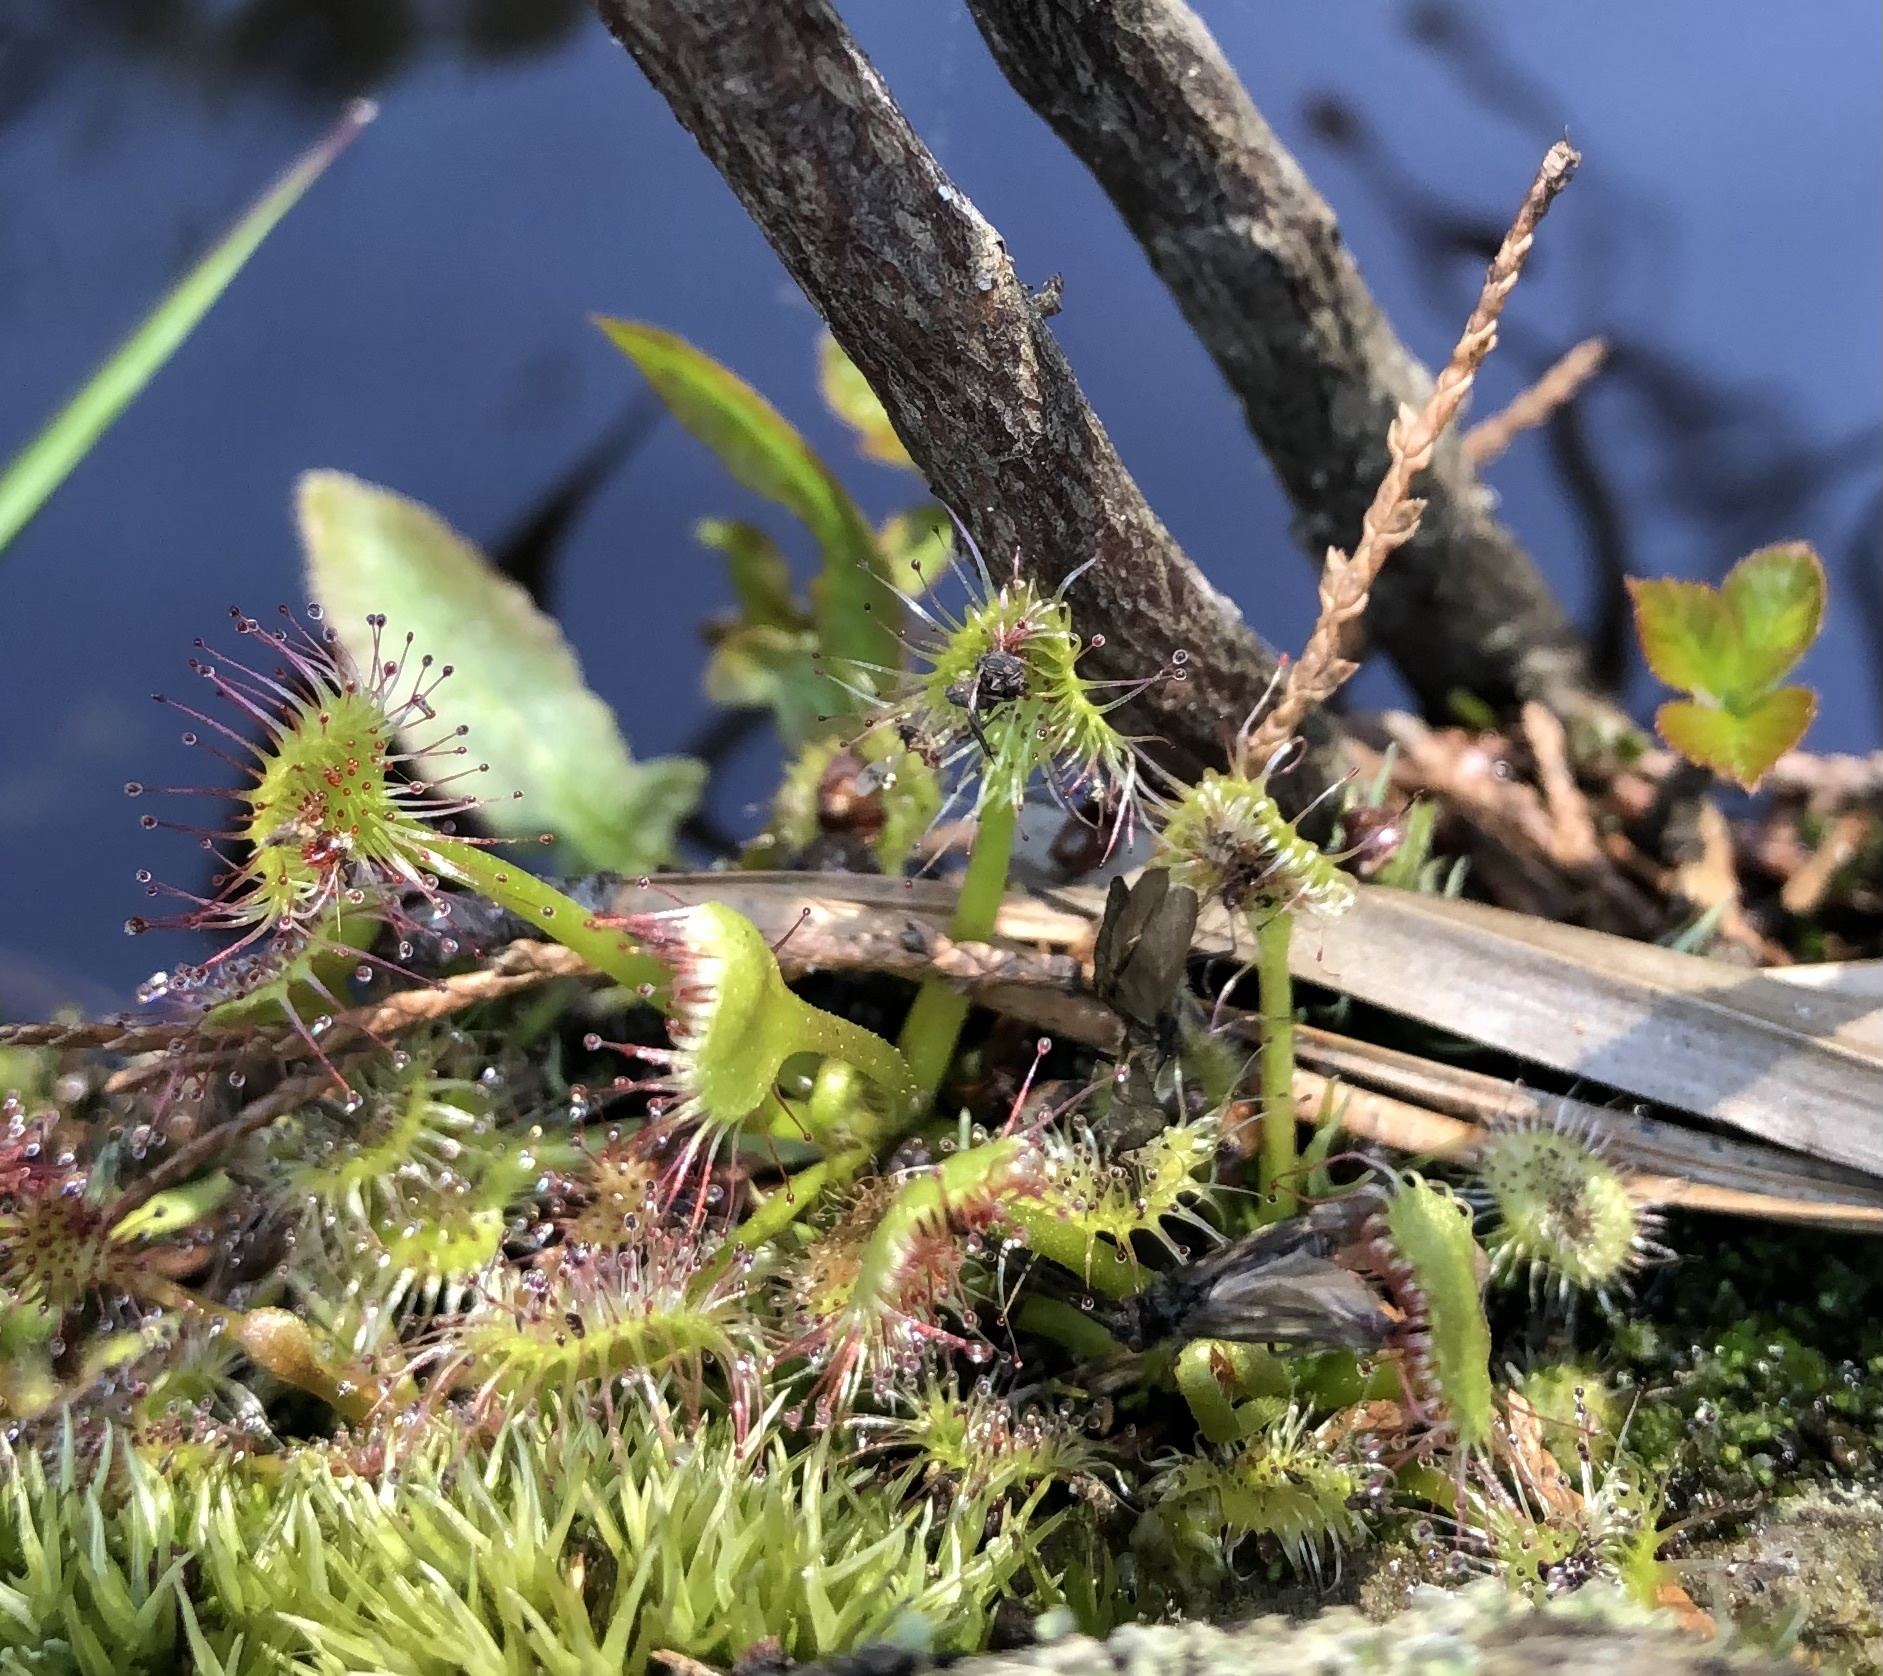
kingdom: Plantae
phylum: Tracheophyta
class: Magnoliopsida
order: Caryophyllales
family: Droseraceae
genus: Drosera
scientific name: Drosera rotundifolia
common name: Round-leaved sundew
